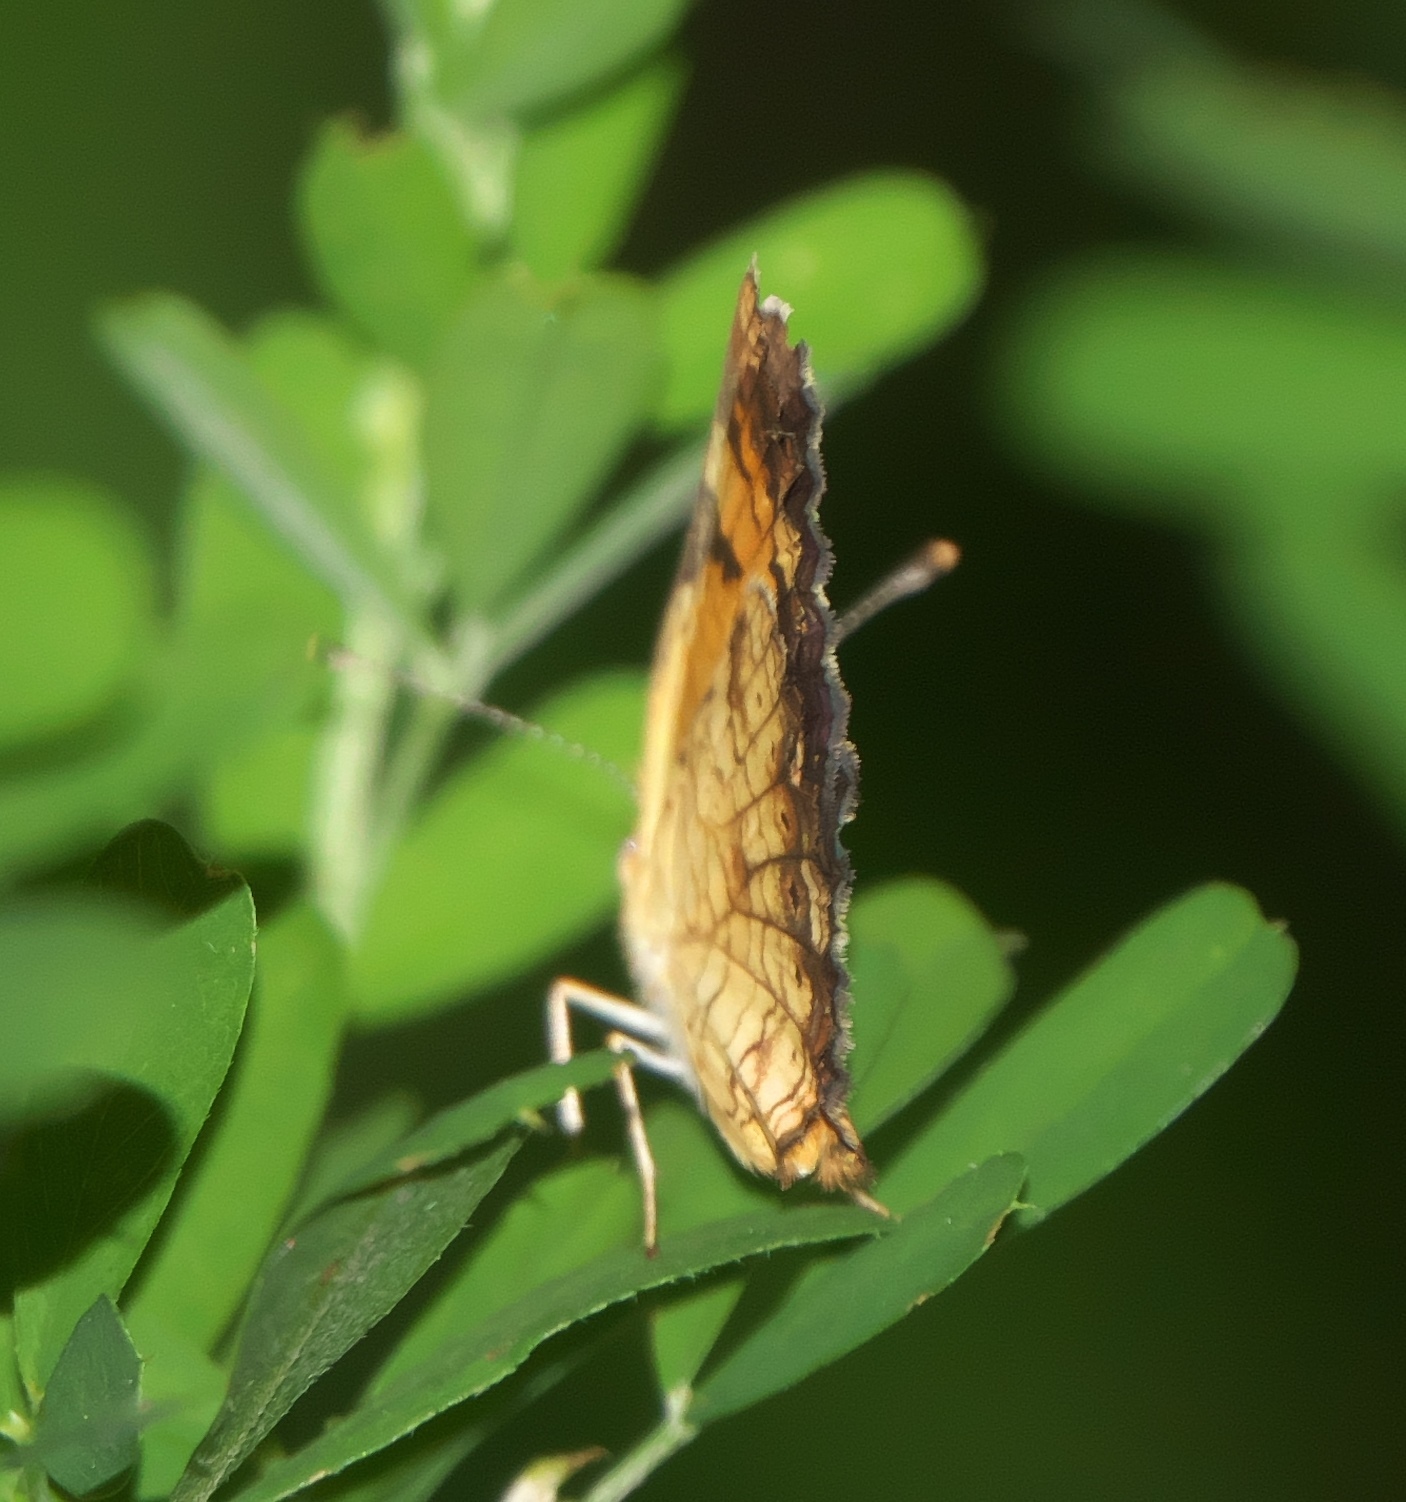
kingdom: Animalia
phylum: Arthropoda
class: Insecta
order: Lepidoptera
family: Nymphalidae
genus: Phyciodes
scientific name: Phyciodes tharos
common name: Pearl crescent
